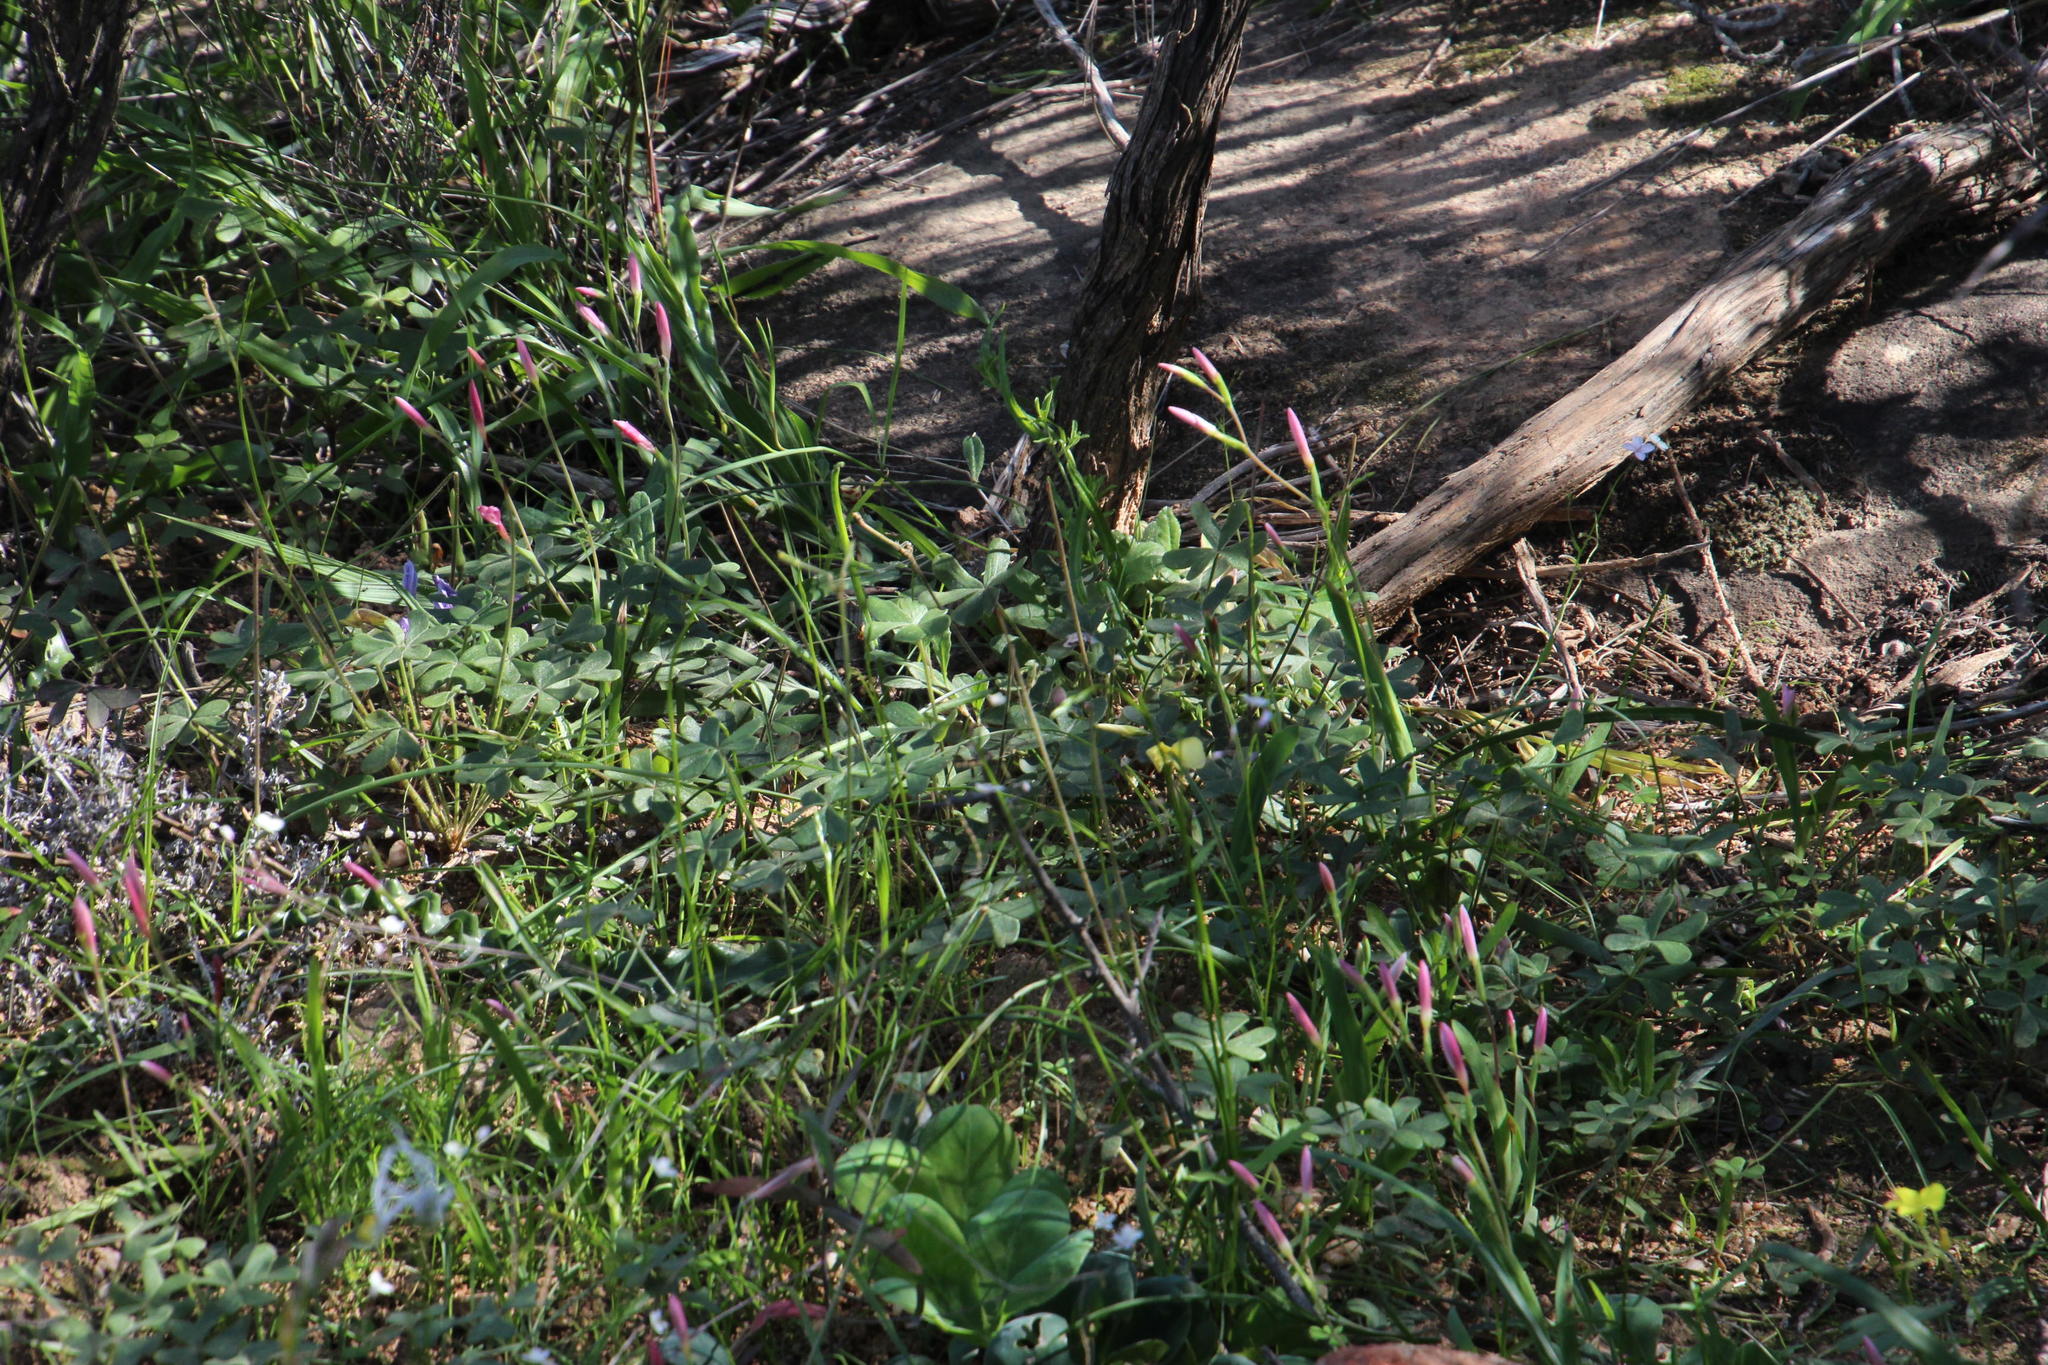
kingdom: Plantae
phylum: Tracheophyta
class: Liliopsida
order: Asparagales
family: Iridaceae
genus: Hesperantha
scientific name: Hesperantha cucullata
